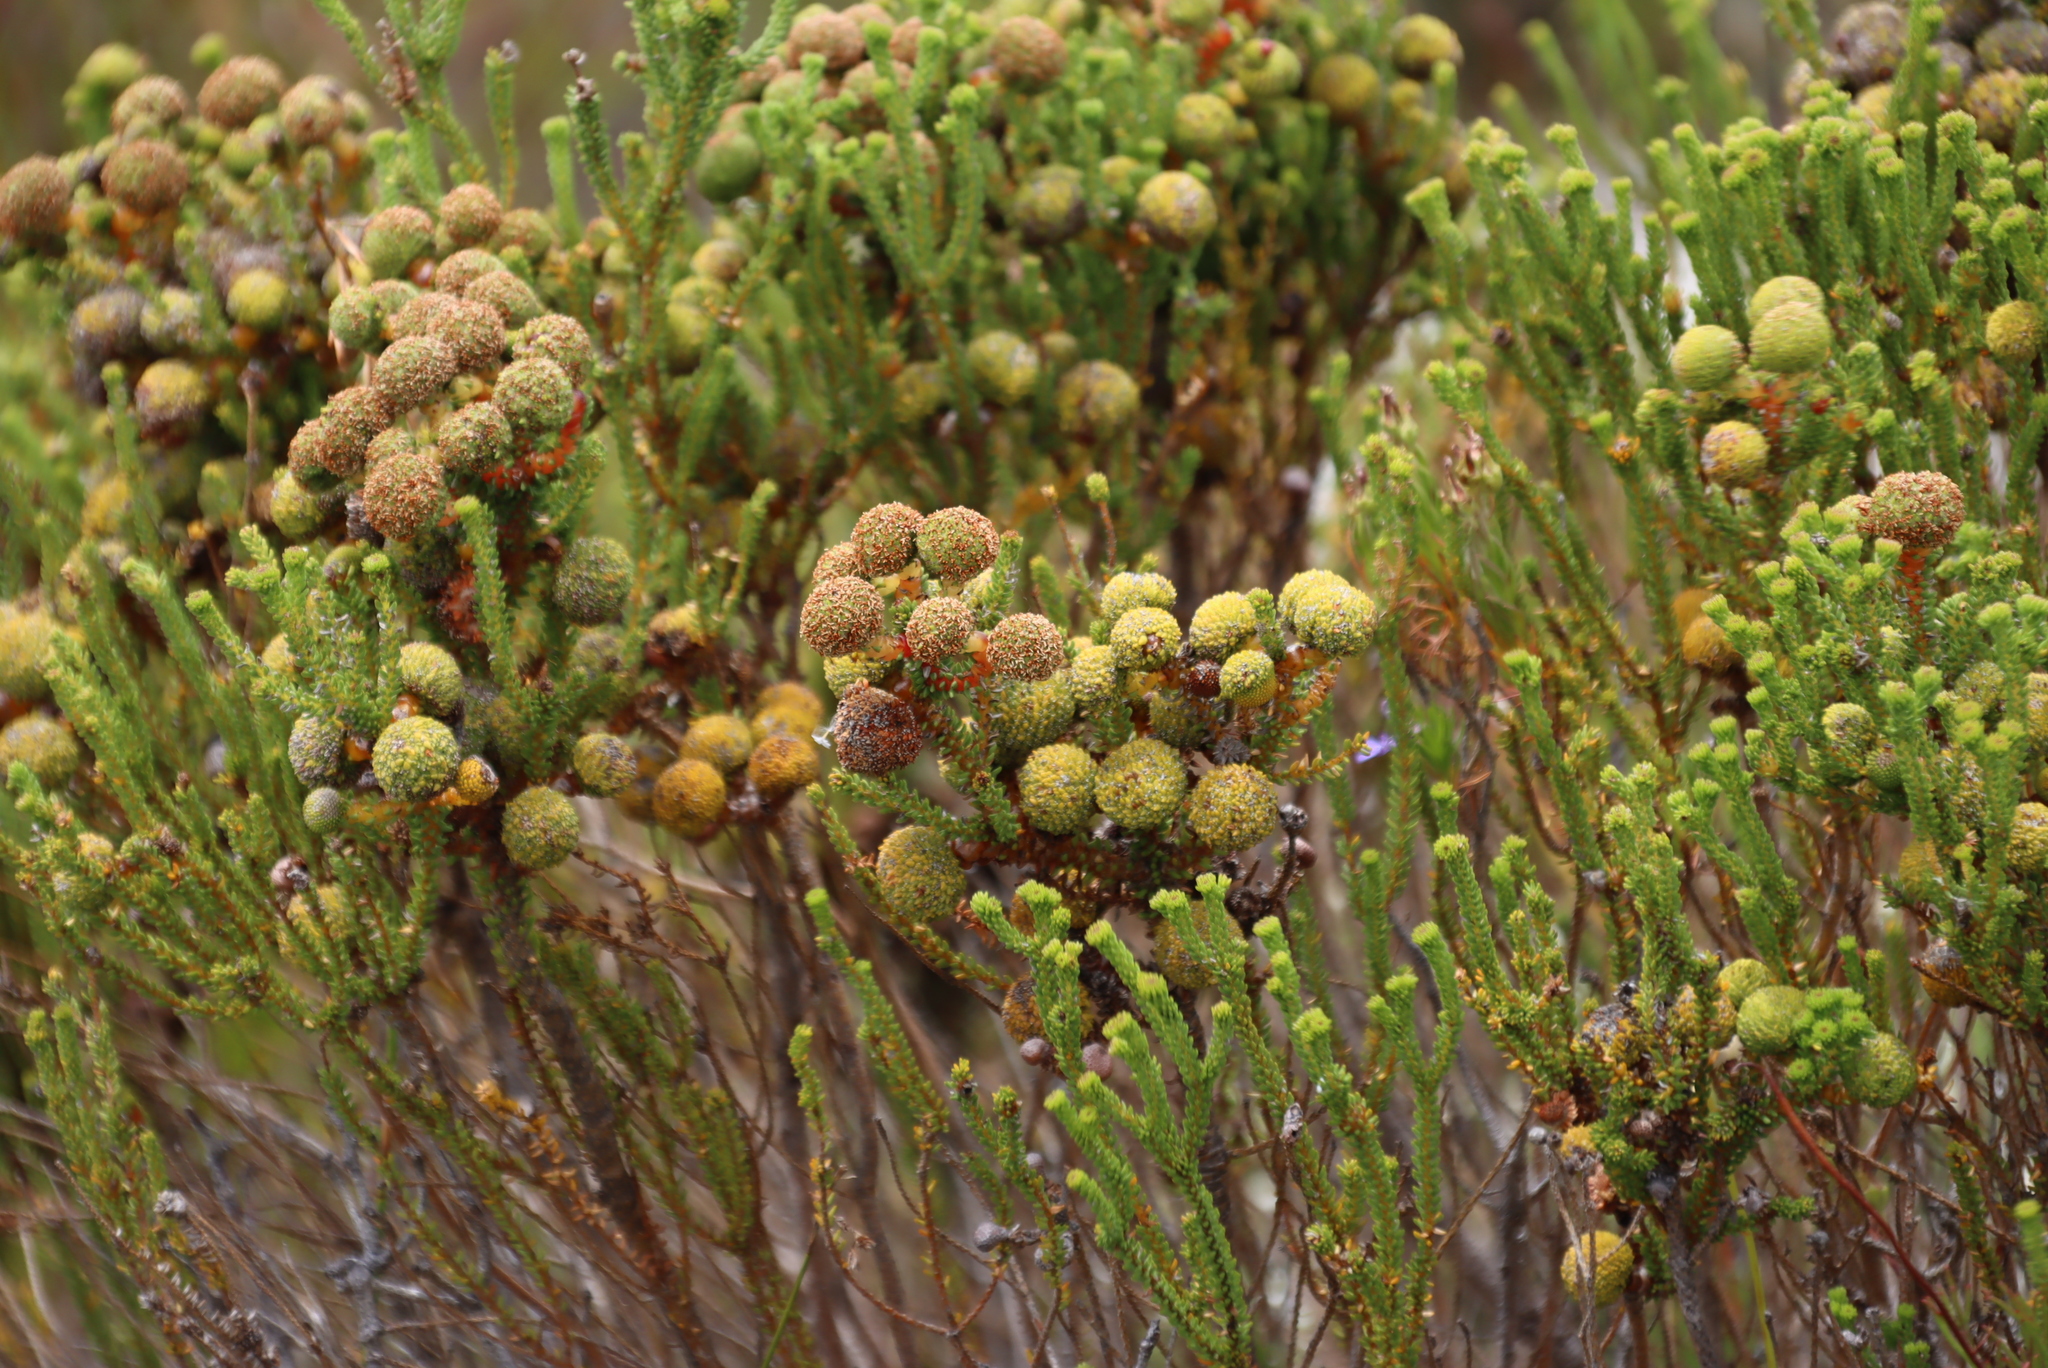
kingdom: Plantae
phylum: Tracheophyta
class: Magnoliopsida
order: Bruniales
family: Bruniaceae
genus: Berzelia
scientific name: Berzelia abrotanoides
